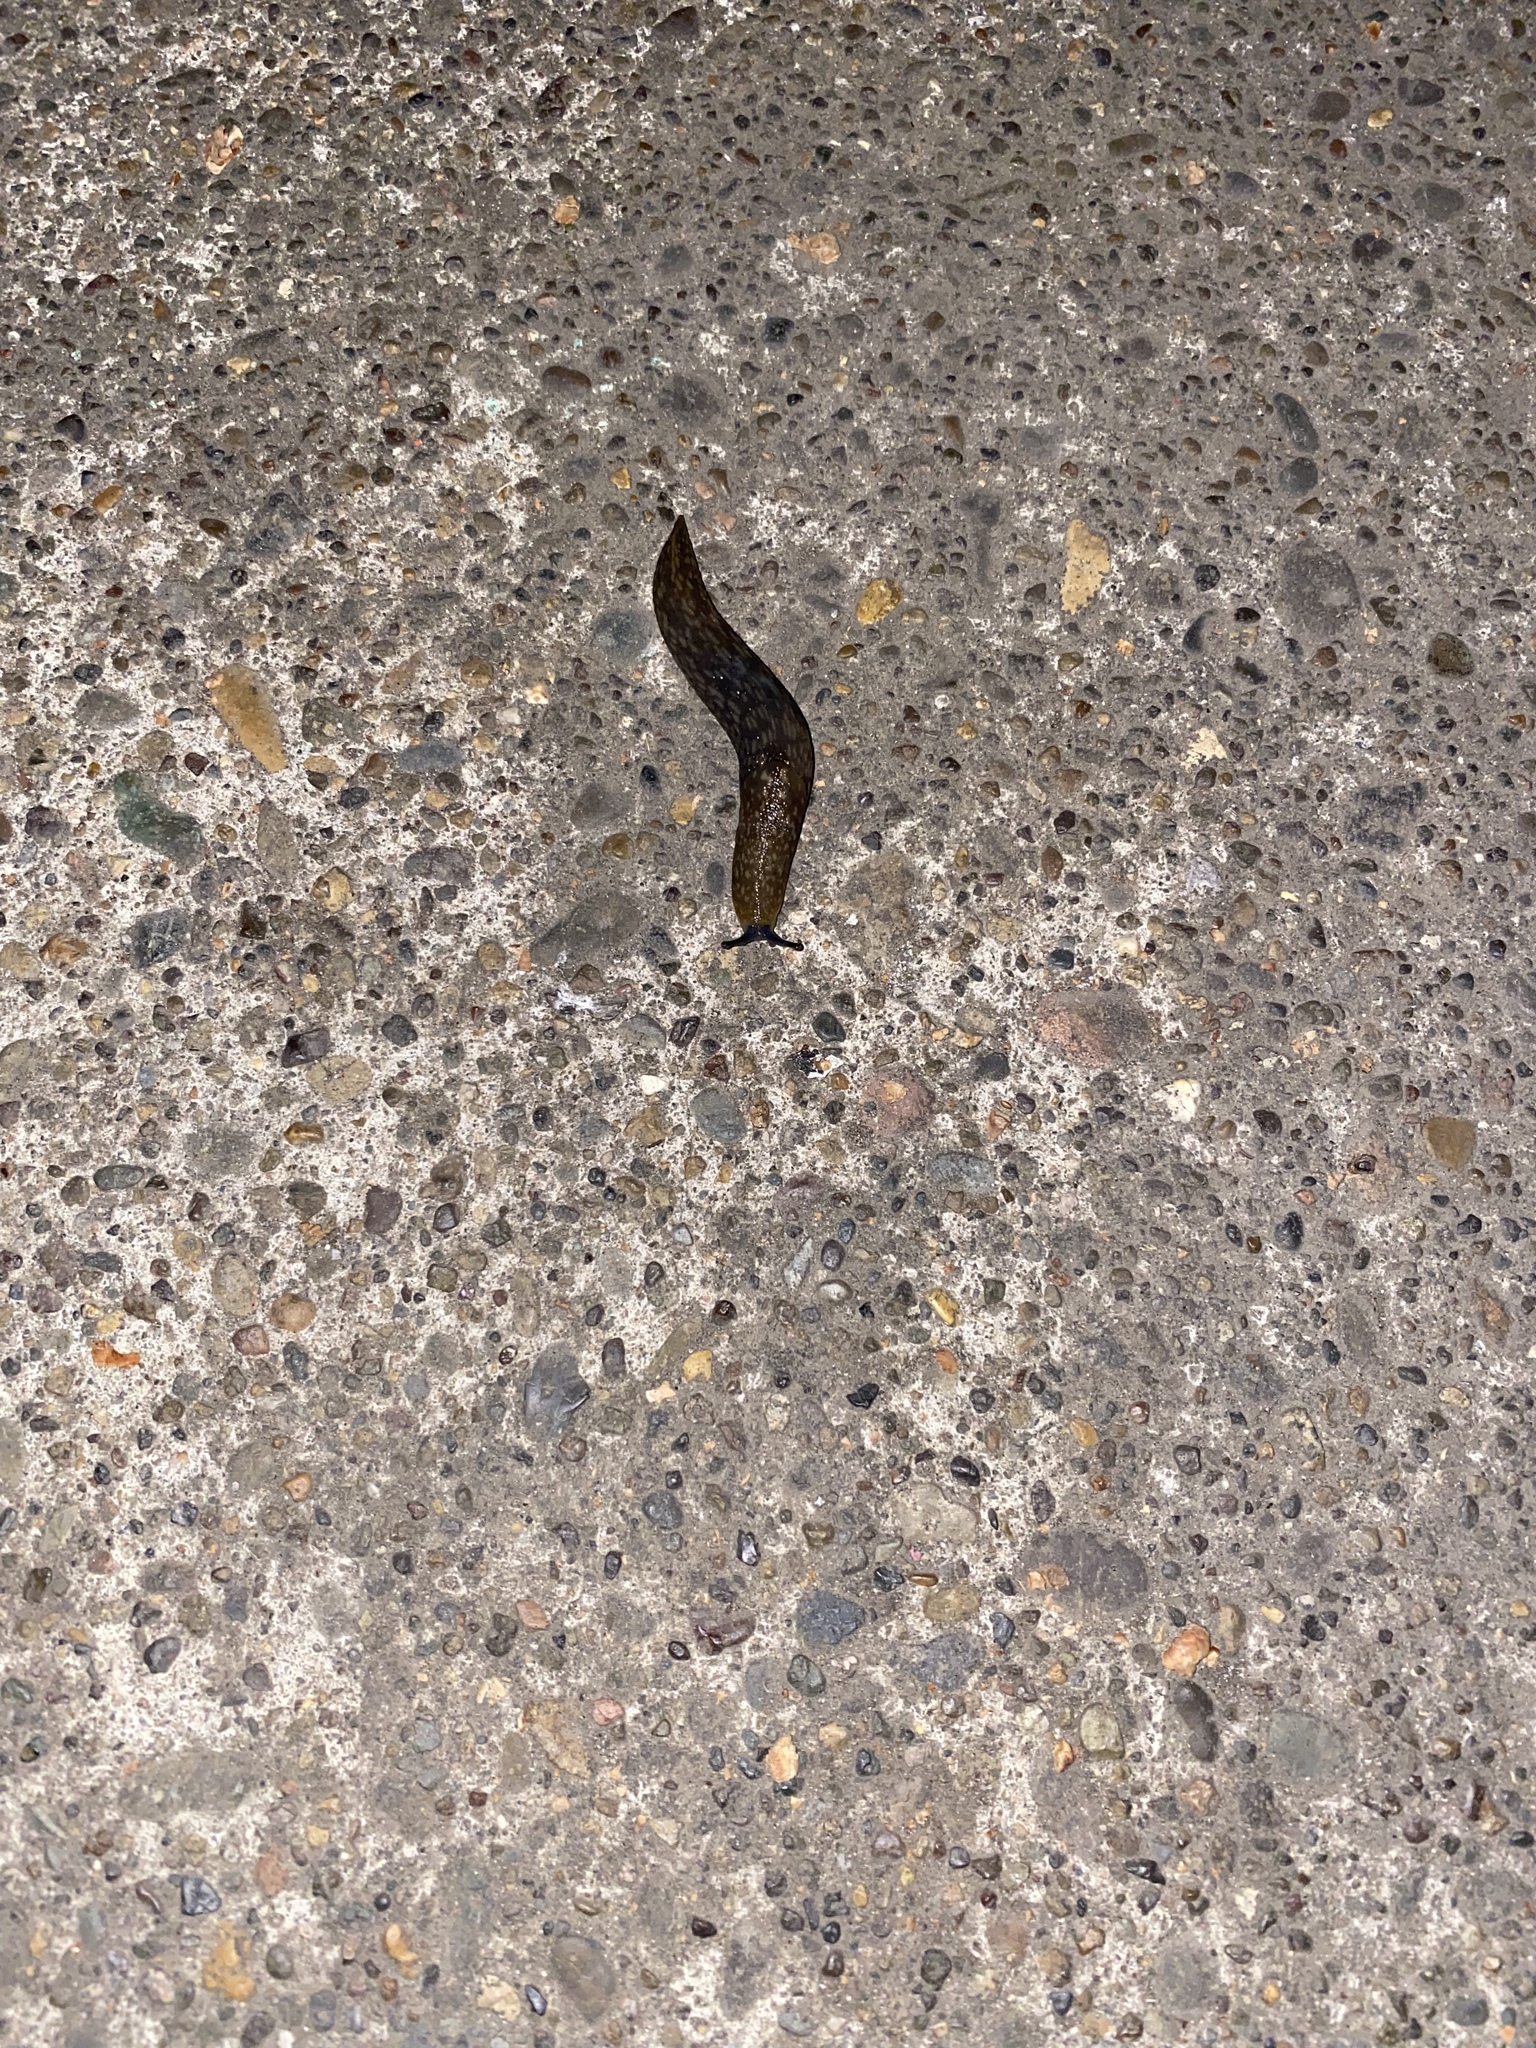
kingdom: Animalia
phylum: Mollusca
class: Gastropoda
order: Stylommatophora
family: Limacidae
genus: Limacus
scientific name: Limacus flavus
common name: Yellow gardenslug
